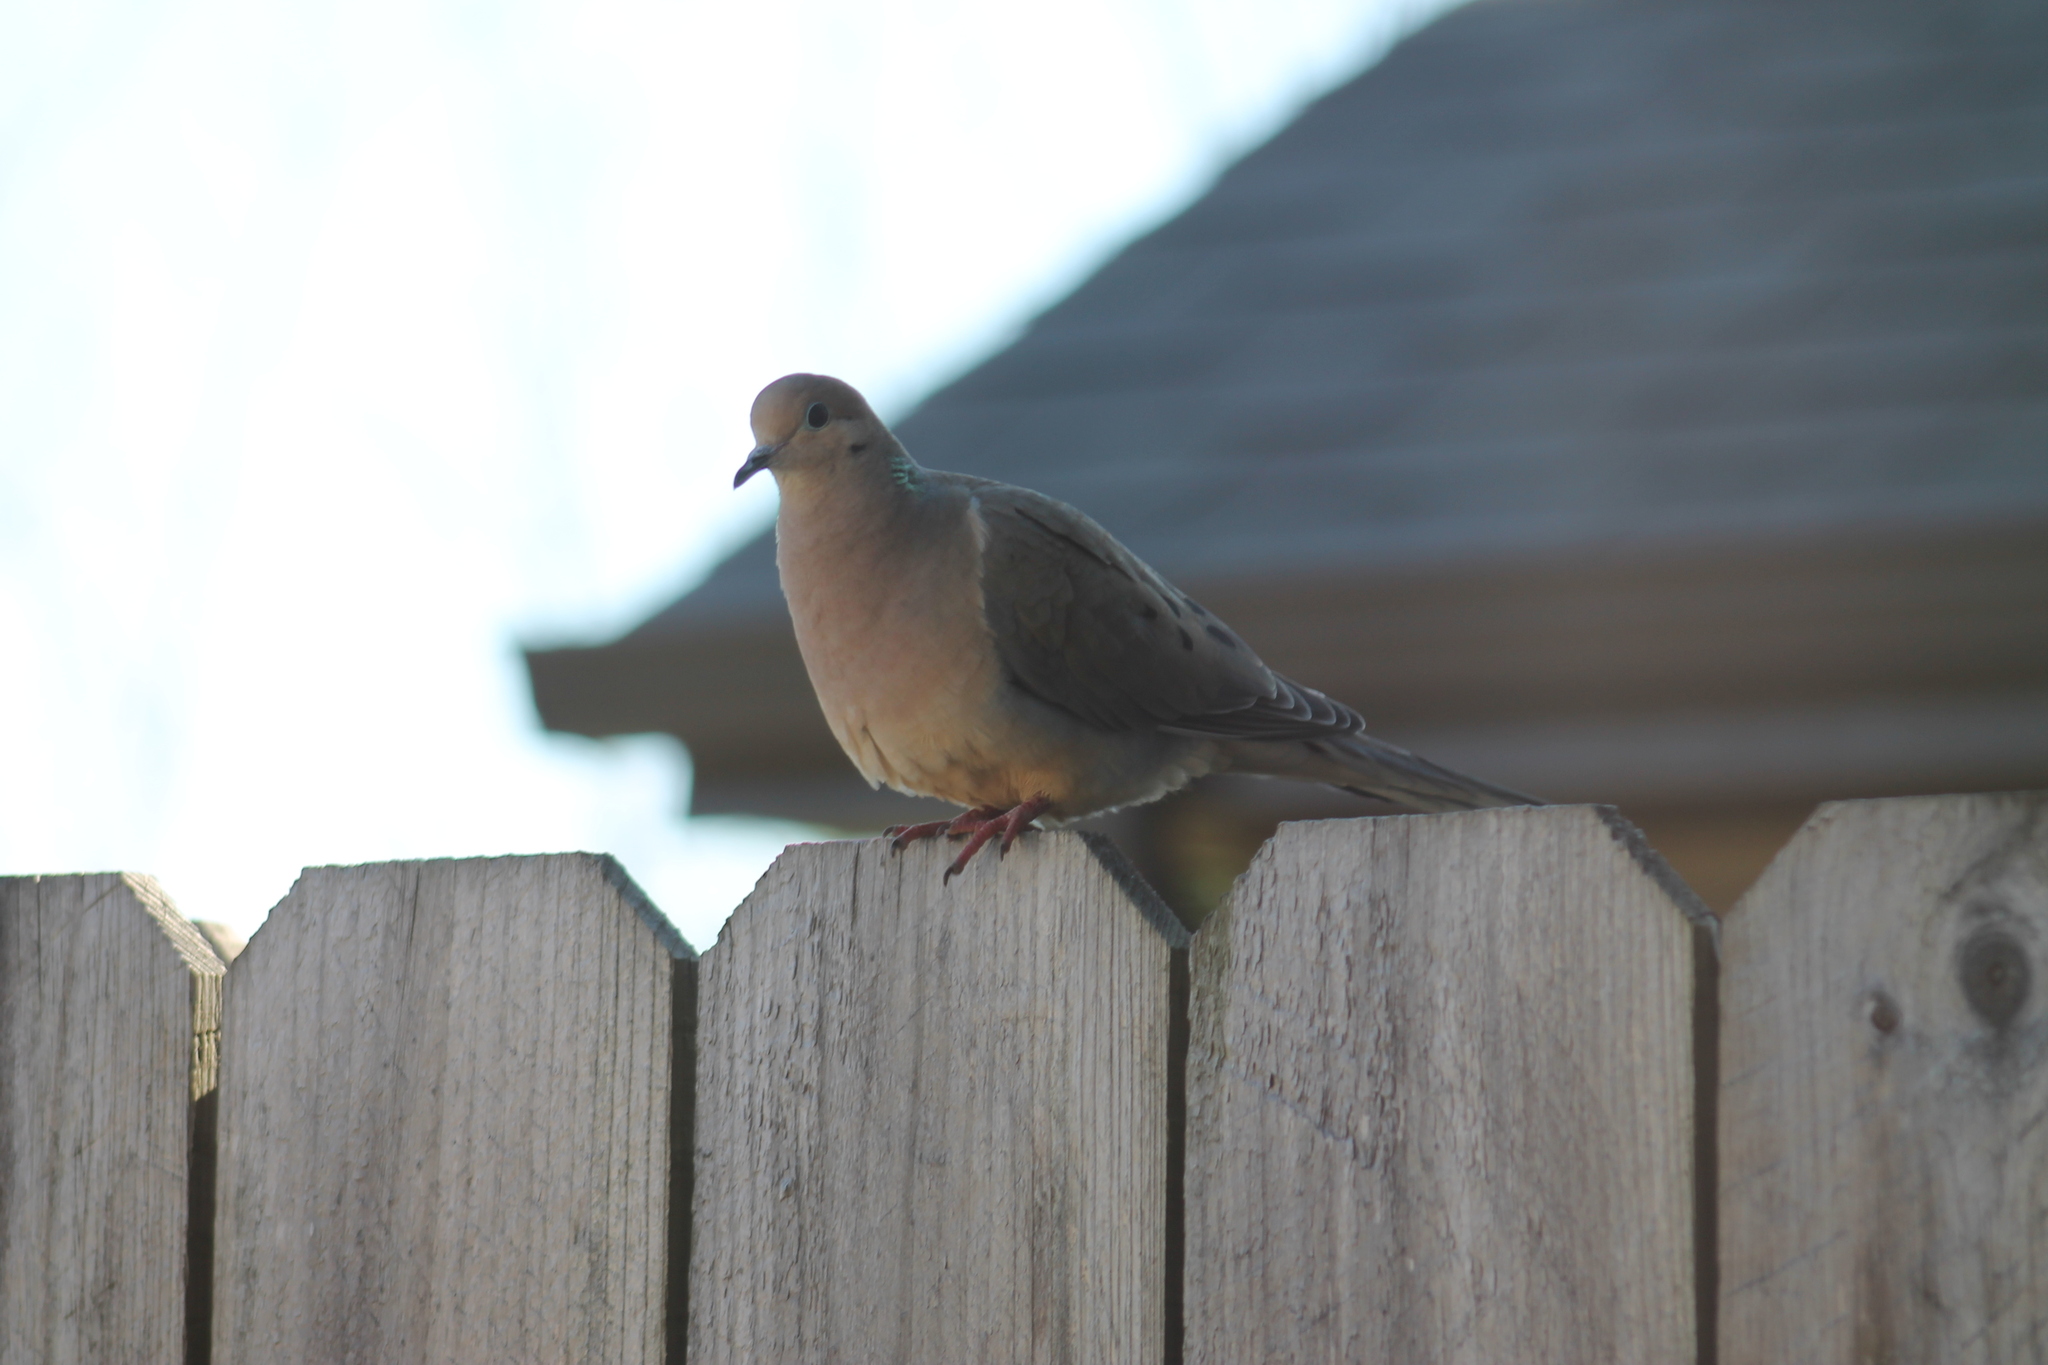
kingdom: Animalia
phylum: Chordata
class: Aves
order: Columbiformes
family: Columbidae
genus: Zenaida
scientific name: Zenaida macroura
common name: Mourning dove
